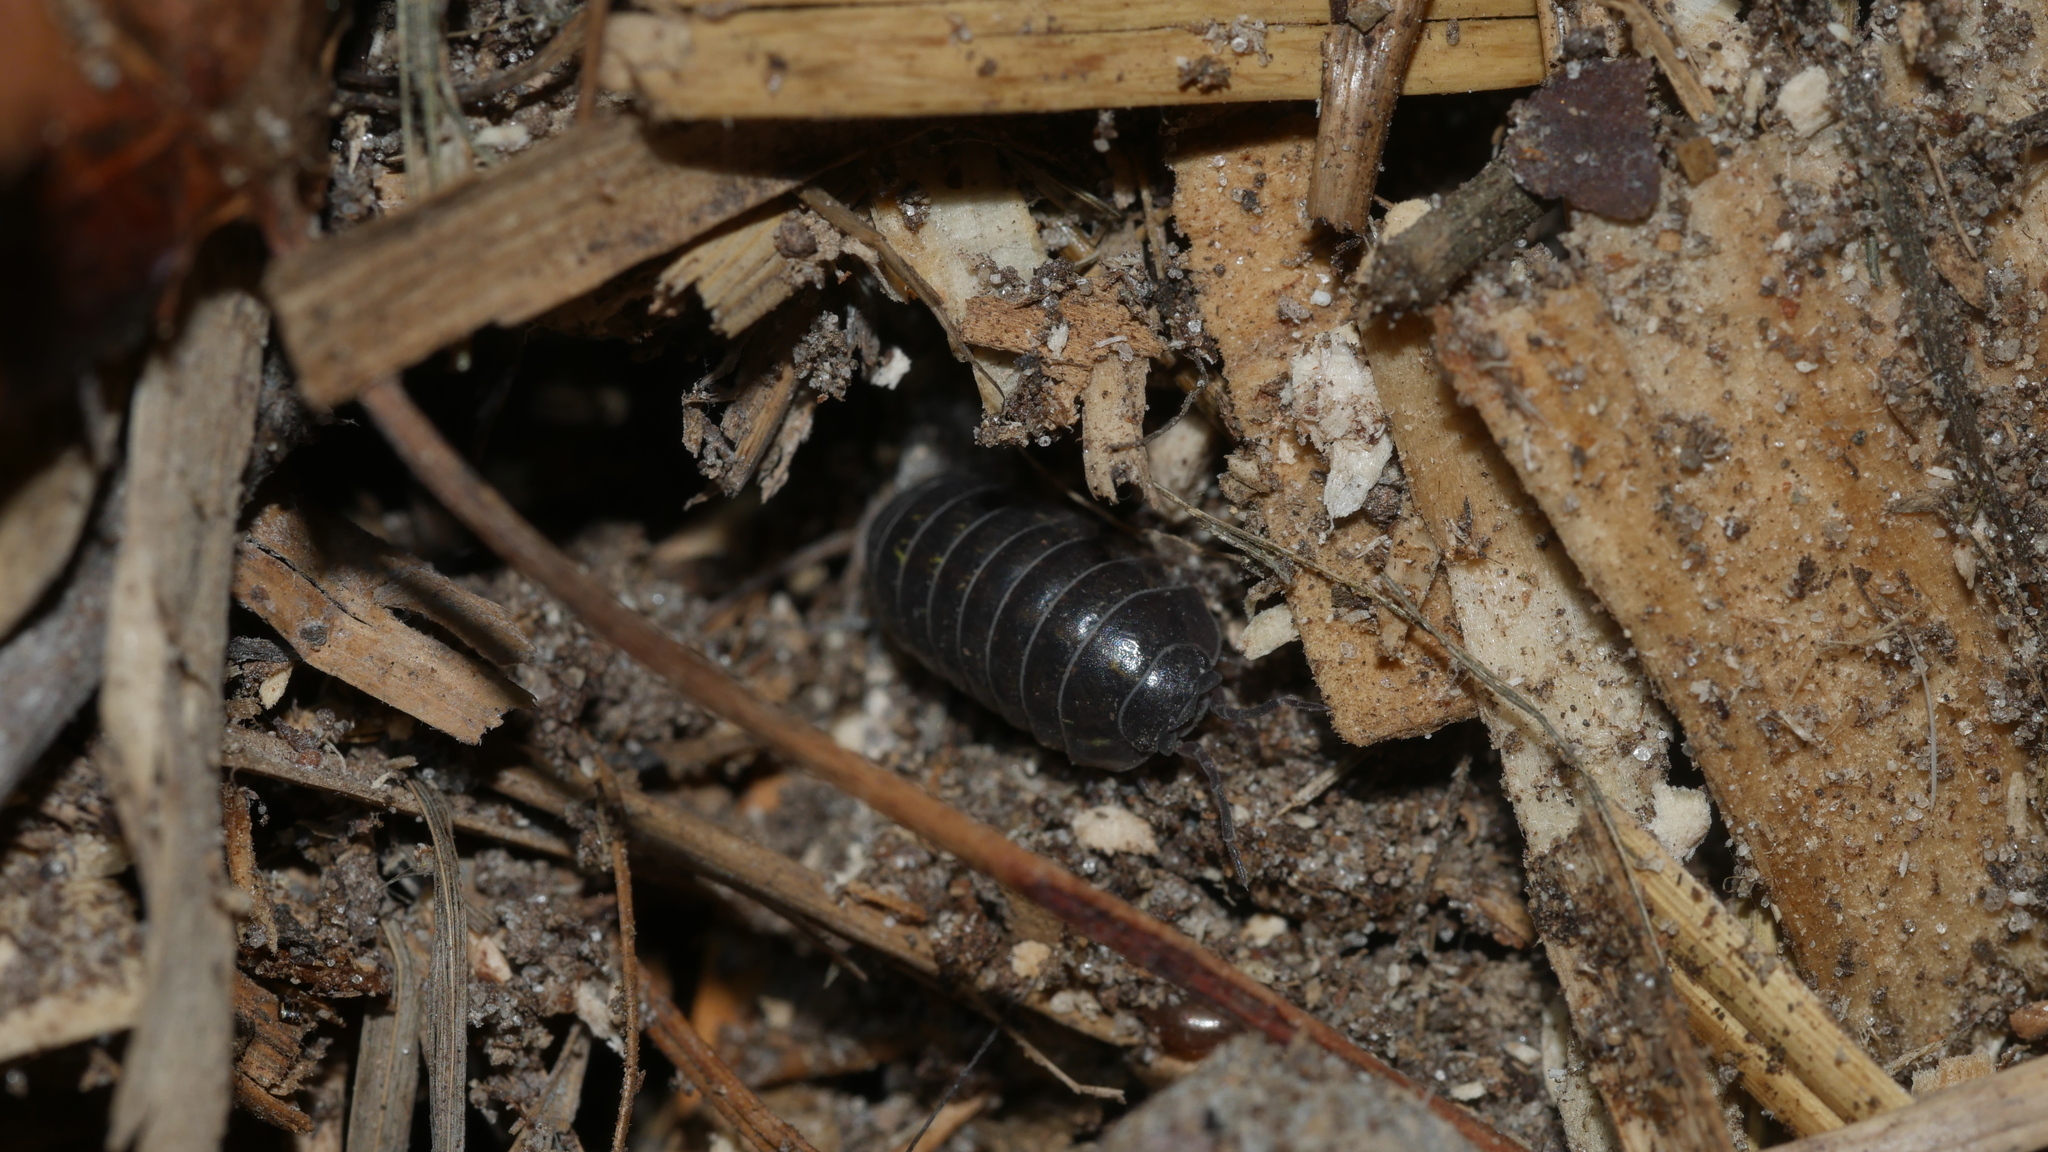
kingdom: Animalia
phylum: Arthropoda
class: Malacostraca
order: Isopoda
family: Armadillidiidae
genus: Armadillidium
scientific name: Armadillidium vulgare
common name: Common pill woodlouse
